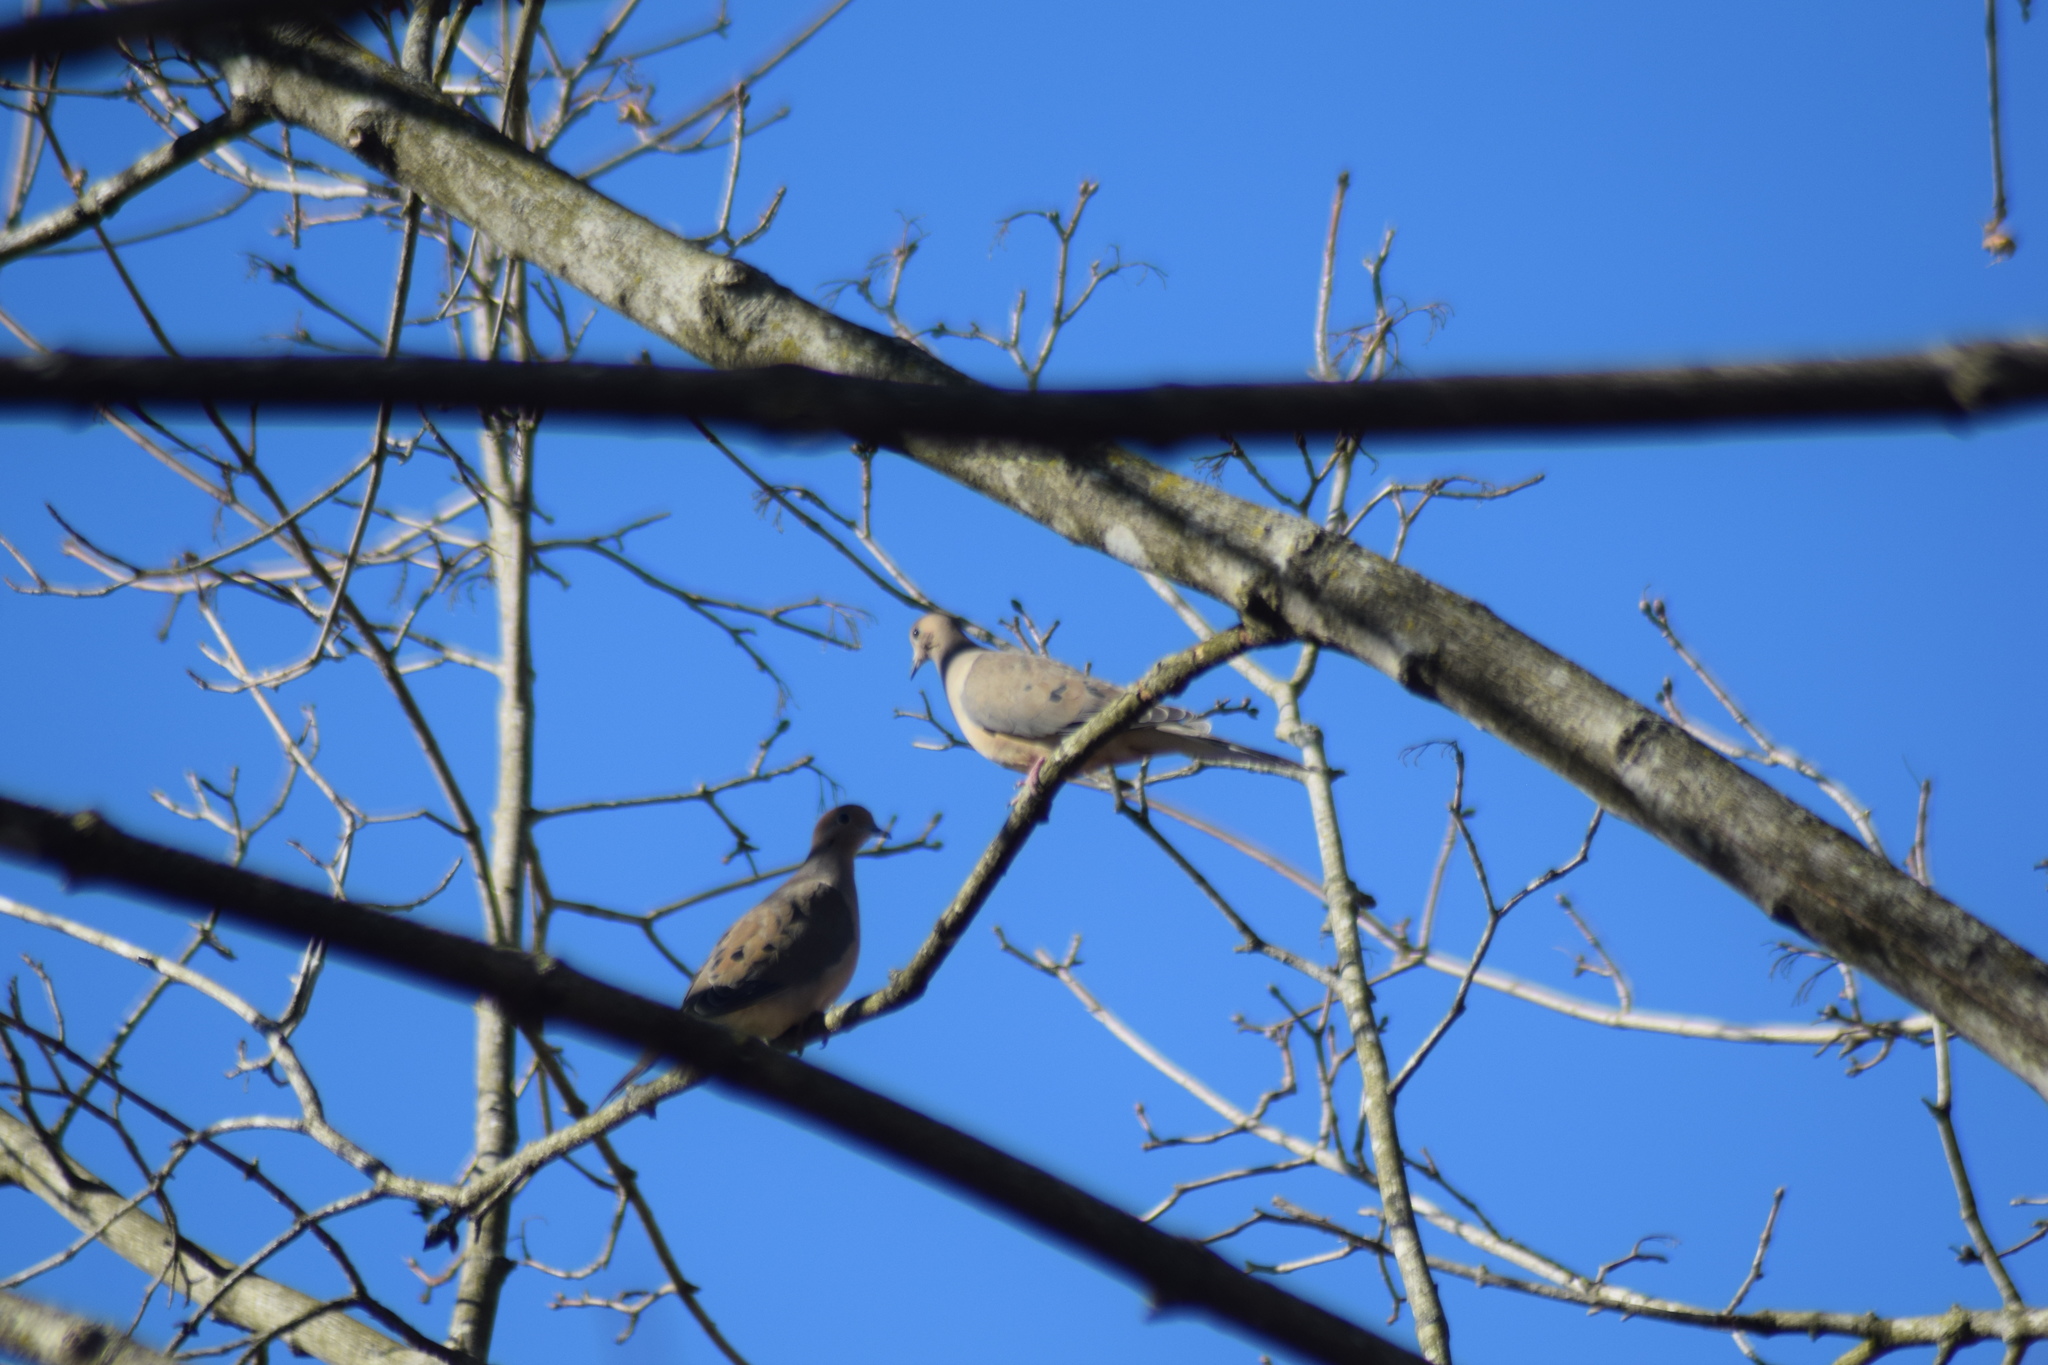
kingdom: Animalia
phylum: Chordata
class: Aves
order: Columbiformes
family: Columbidae
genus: Zenaida
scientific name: Zenaida macroura
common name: Mourning dove
